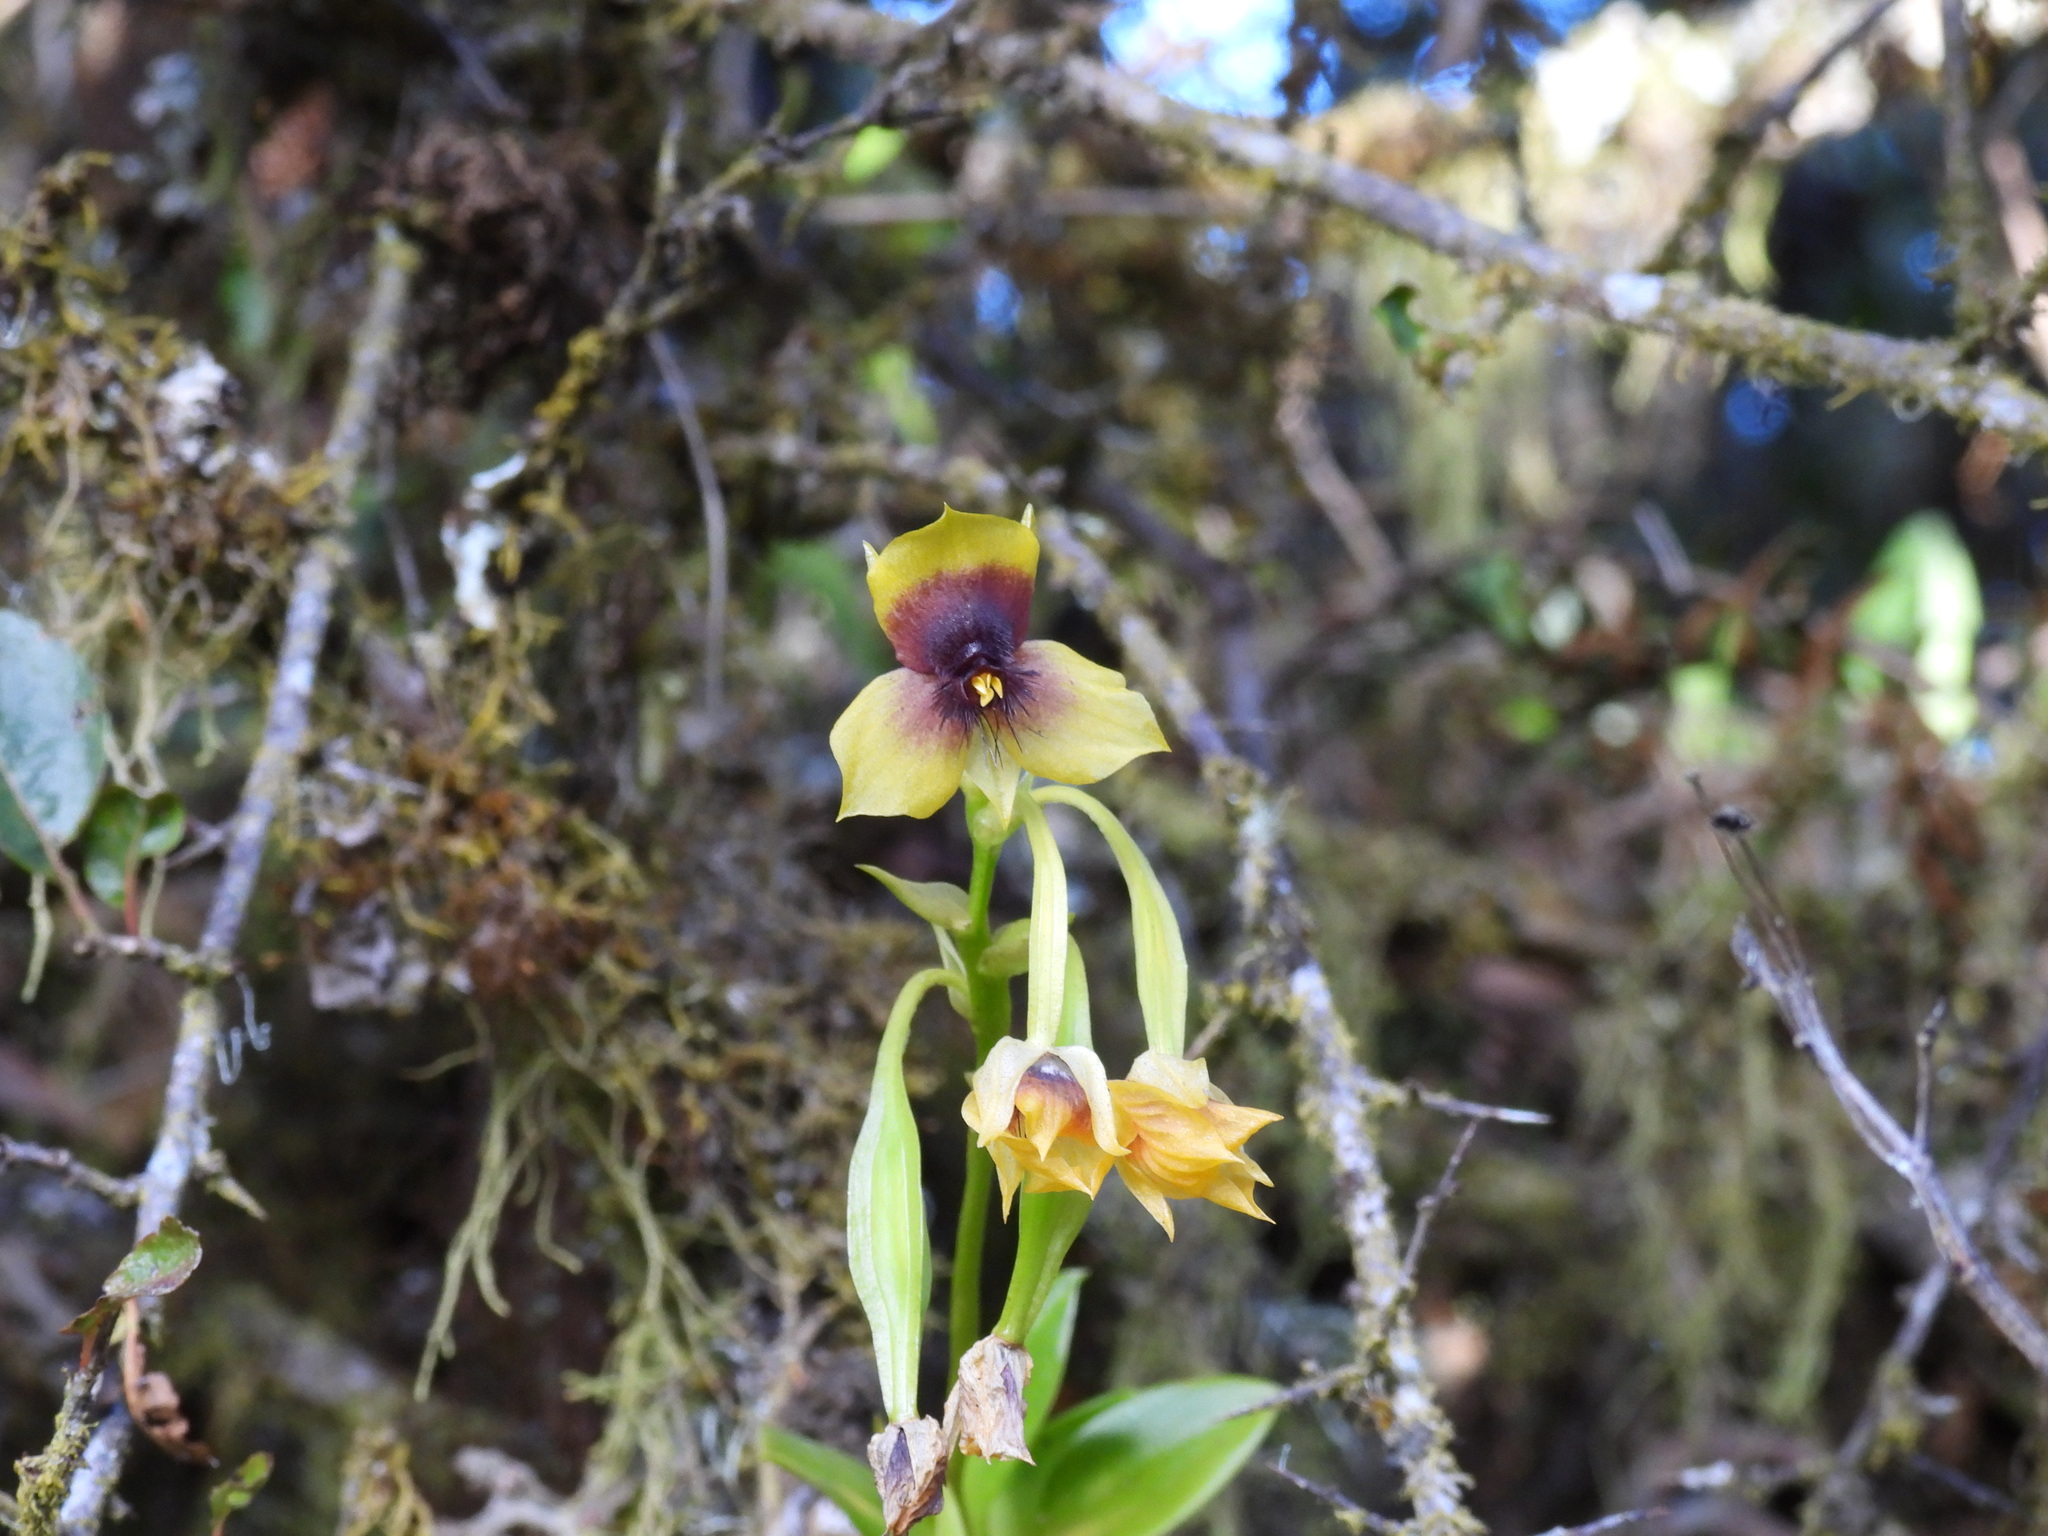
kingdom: Plantae
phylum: Tracheophyta
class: Liliopsida
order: Asparagales
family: Orchidaceae
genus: Telipogon
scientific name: Telipogon berthae
